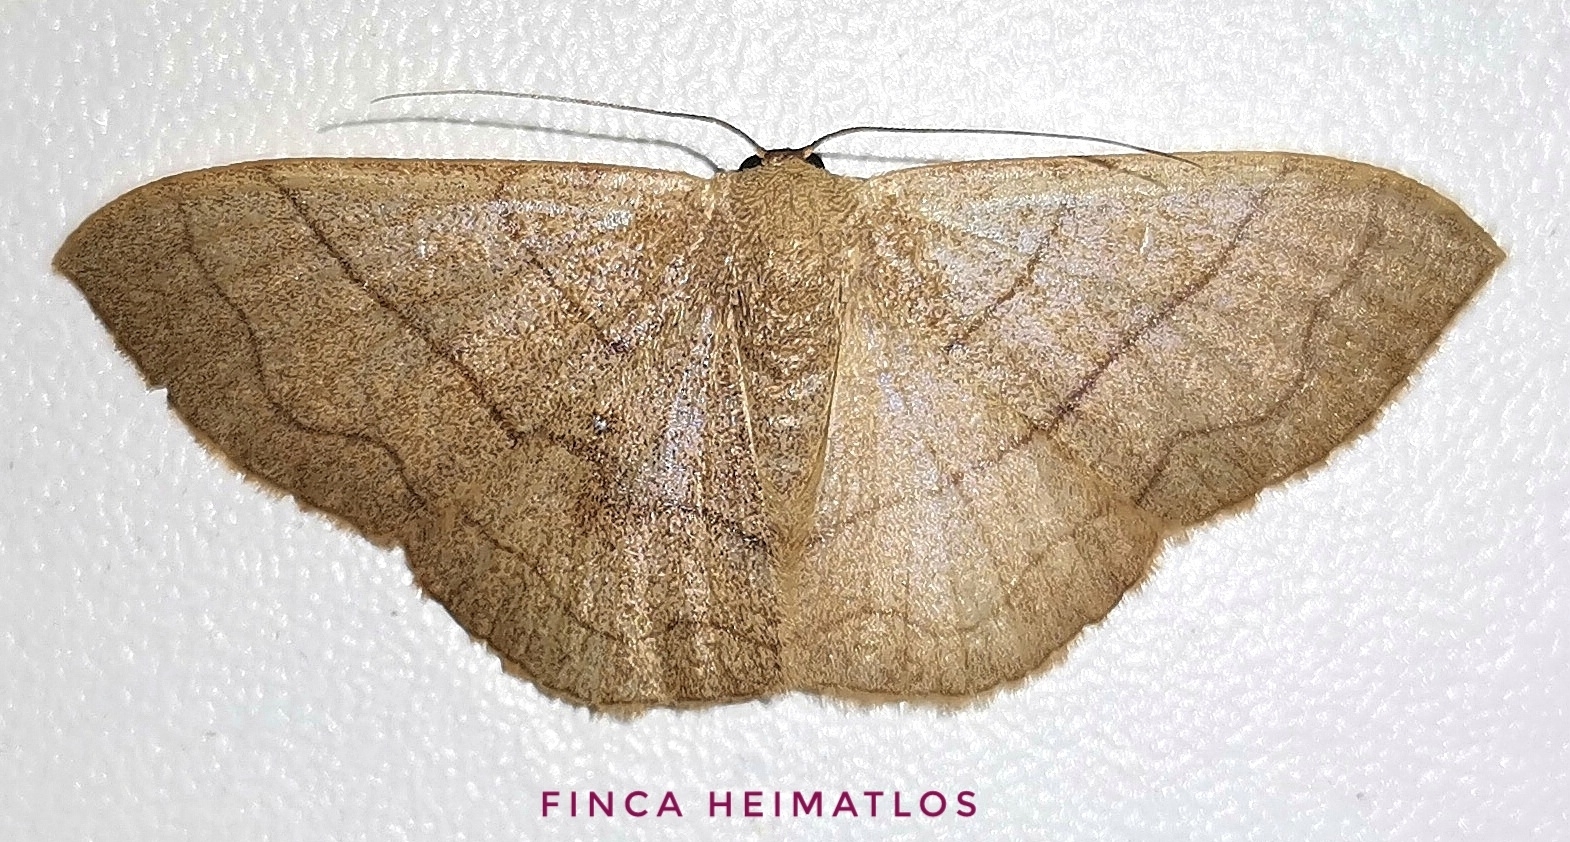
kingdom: Animalia
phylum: Arthropoda
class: Insecta
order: Lepidoptera
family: Geometridae
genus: Semaeopus
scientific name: Semaeopus ciliata
